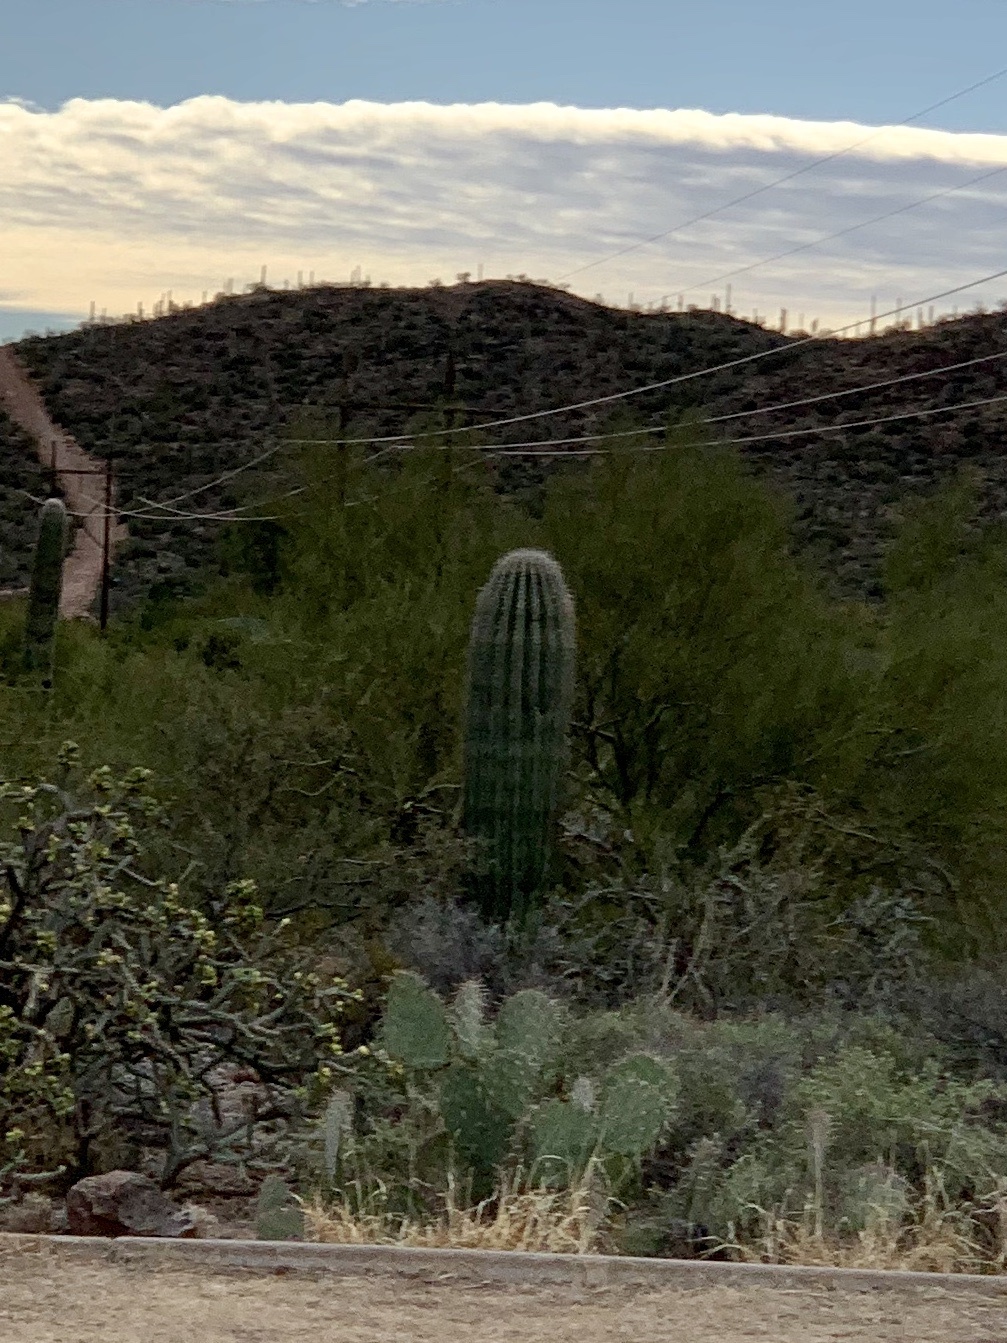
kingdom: Plantae
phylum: Tracheophyta
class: Magnoliopsida
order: Caryophyllales
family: Cactaceae
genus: Carnegiea
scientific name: Carnegiea gigantea
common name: Saguaro
